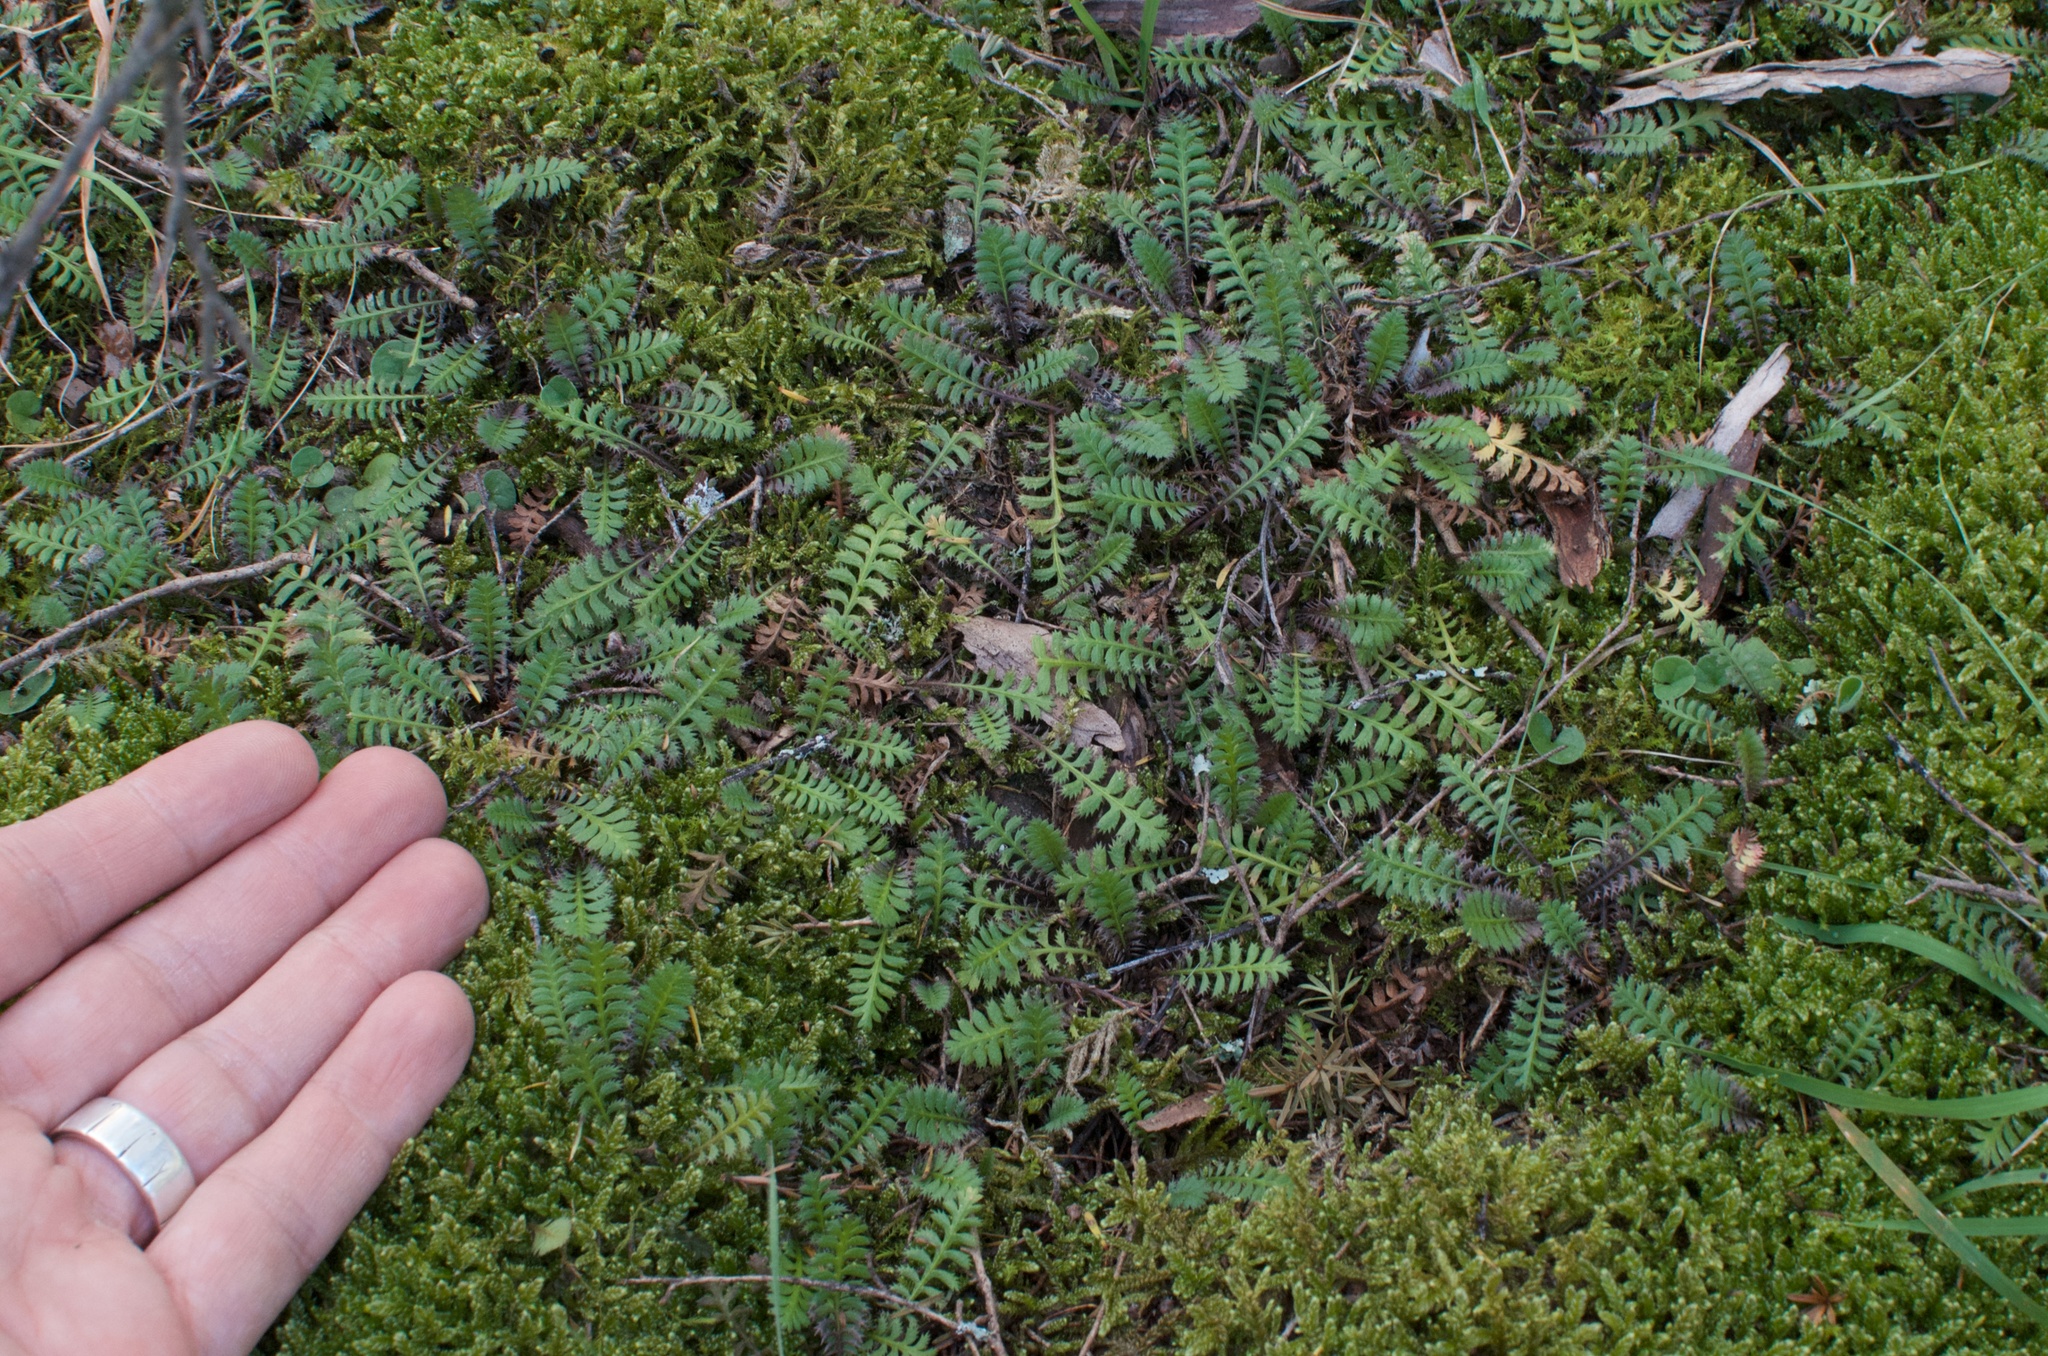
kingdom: Plantae
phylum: Tracheophyta
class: Magnoliopsida
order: Asterales
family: Asteraceae
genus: Leptinella
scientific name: Leptinella squalida
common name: New zealand brass-buttons
